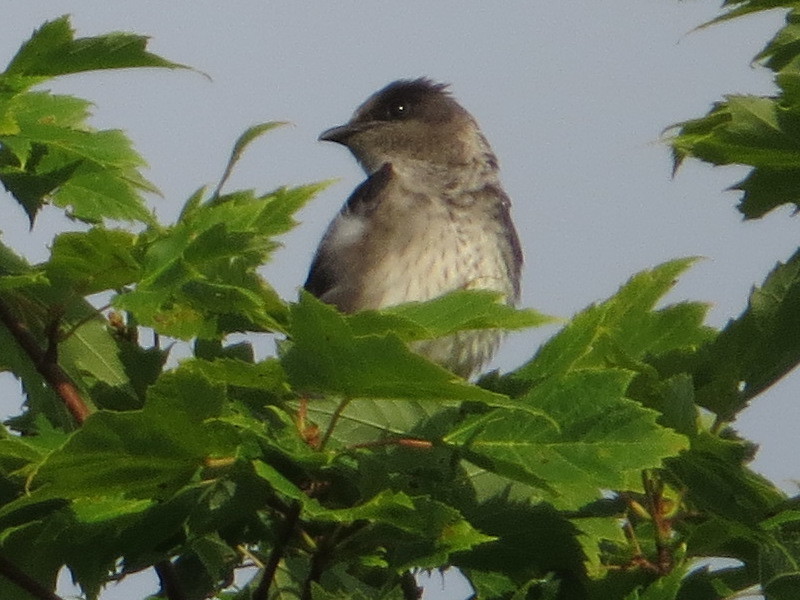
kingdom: Animalia
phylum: Chordata
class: Aves
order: Passeriformes
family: Hirundinidae
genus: Progne
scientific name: Progne subis
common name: Purple martin
